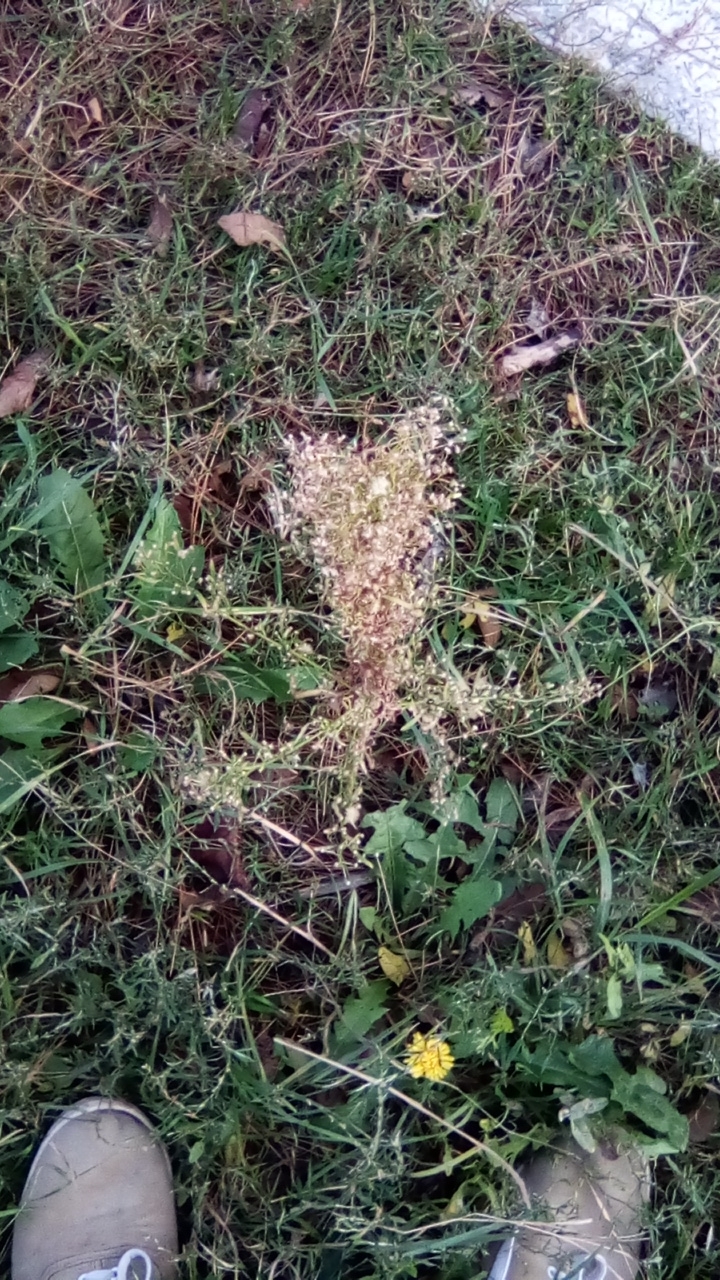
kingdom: Plantae
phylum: Tracheophyta
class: Magnoliopsida
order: Asterales
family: Asteraceae
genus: Erigeron
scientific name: Erigeron canadensis
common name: Canadian fleabane
